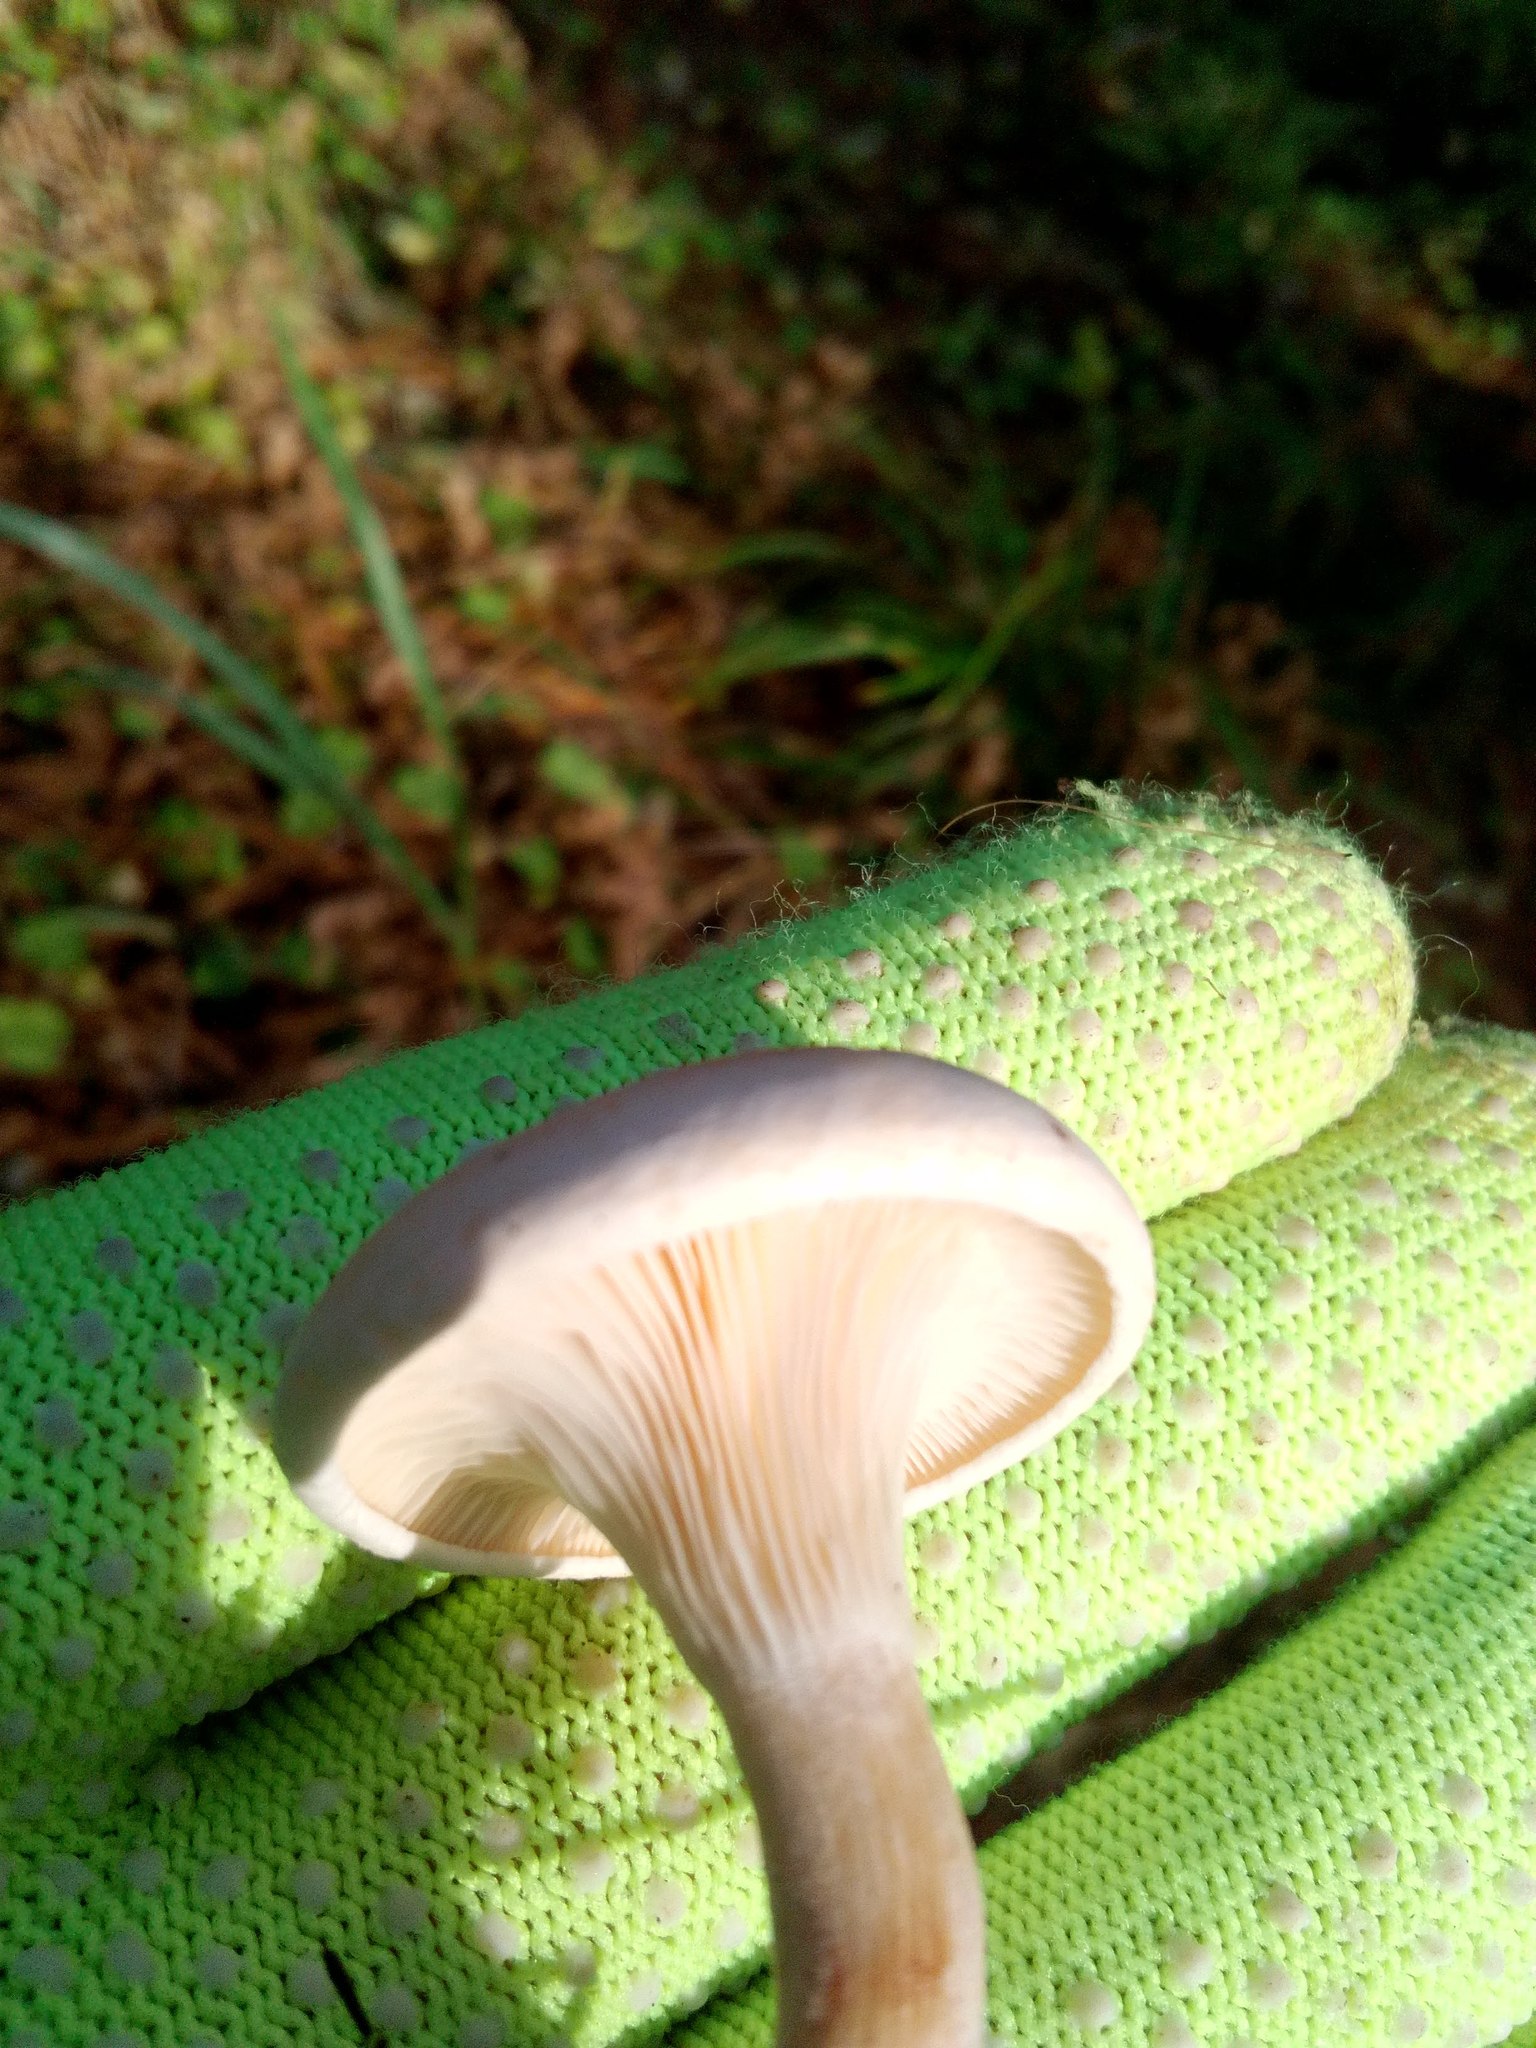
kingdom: Fungi
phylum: Basidiomycota
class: Agaricomycetes
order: Agaricales
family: Entolomataceae
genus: Clitopilus
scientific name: Clitopilus prunulus
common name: The miller
